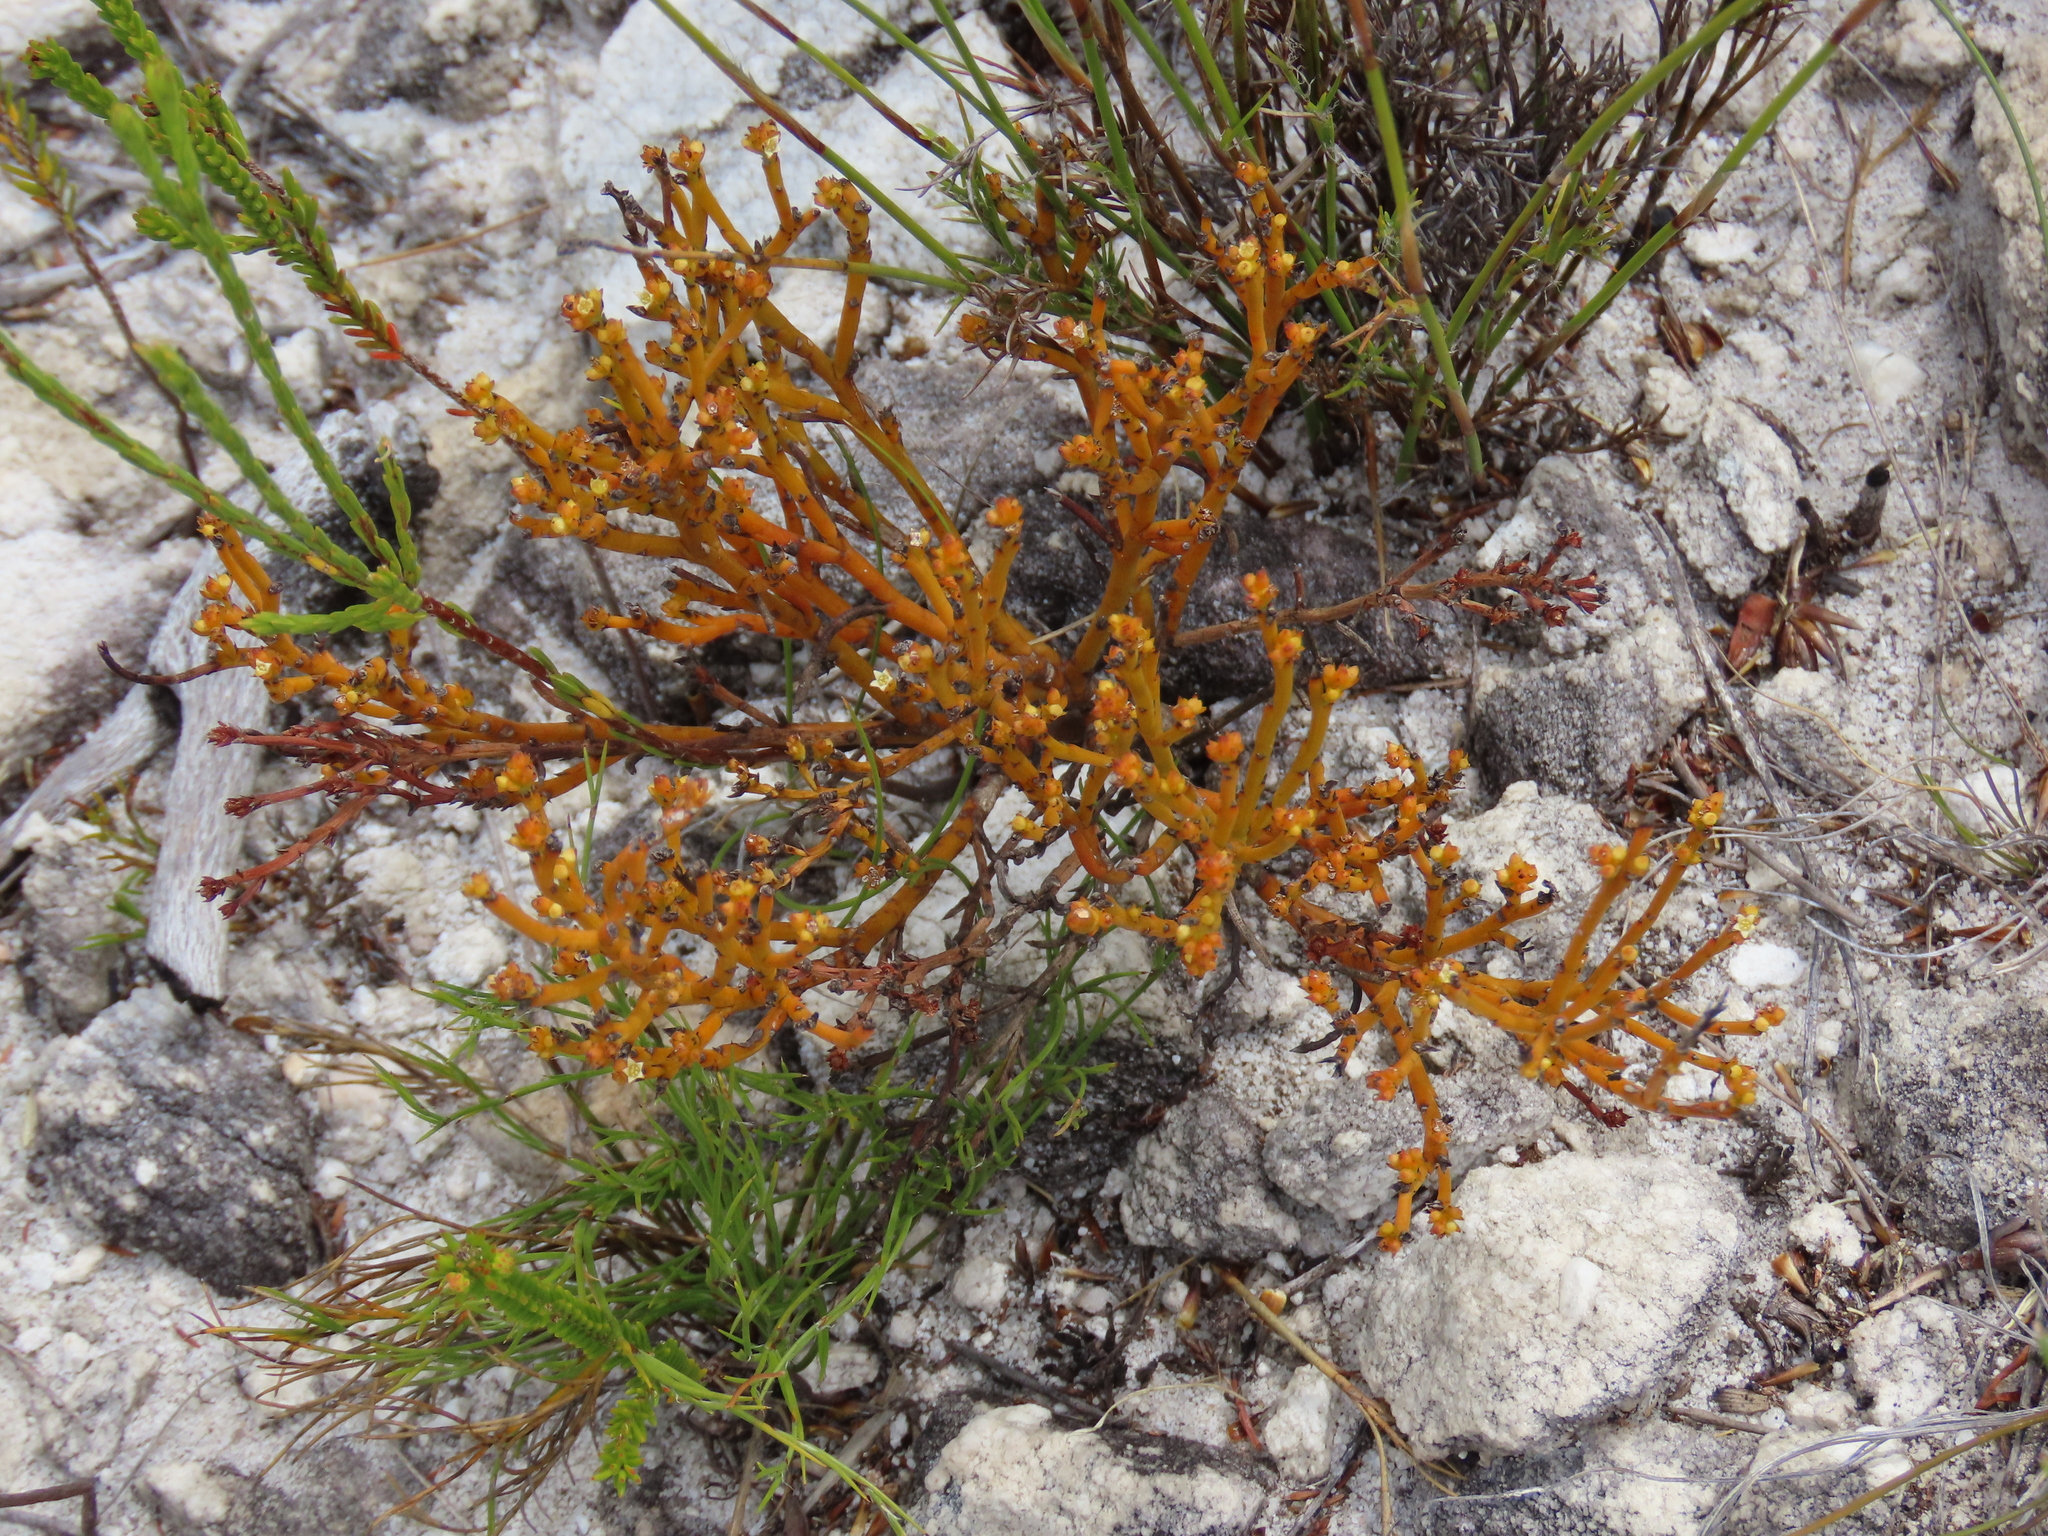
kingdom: Plantae
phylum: Tracheophyta
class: Magnoliopsida
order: Santalales
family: Thesiaceae
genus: Thesium
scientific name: Thesium ericiifolium
